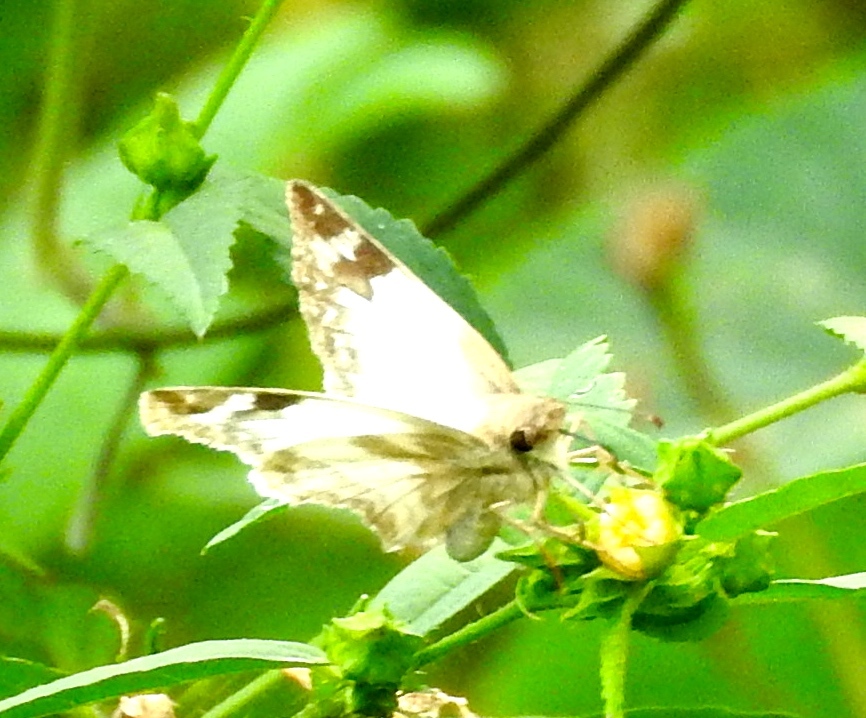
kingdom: Animalia
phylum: Arthropoda
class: Insecta
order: Lepidoptera
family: Hesperiidae
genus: Heliopetes
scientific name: Heliopetes laviana
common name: Laviana white-skipper
